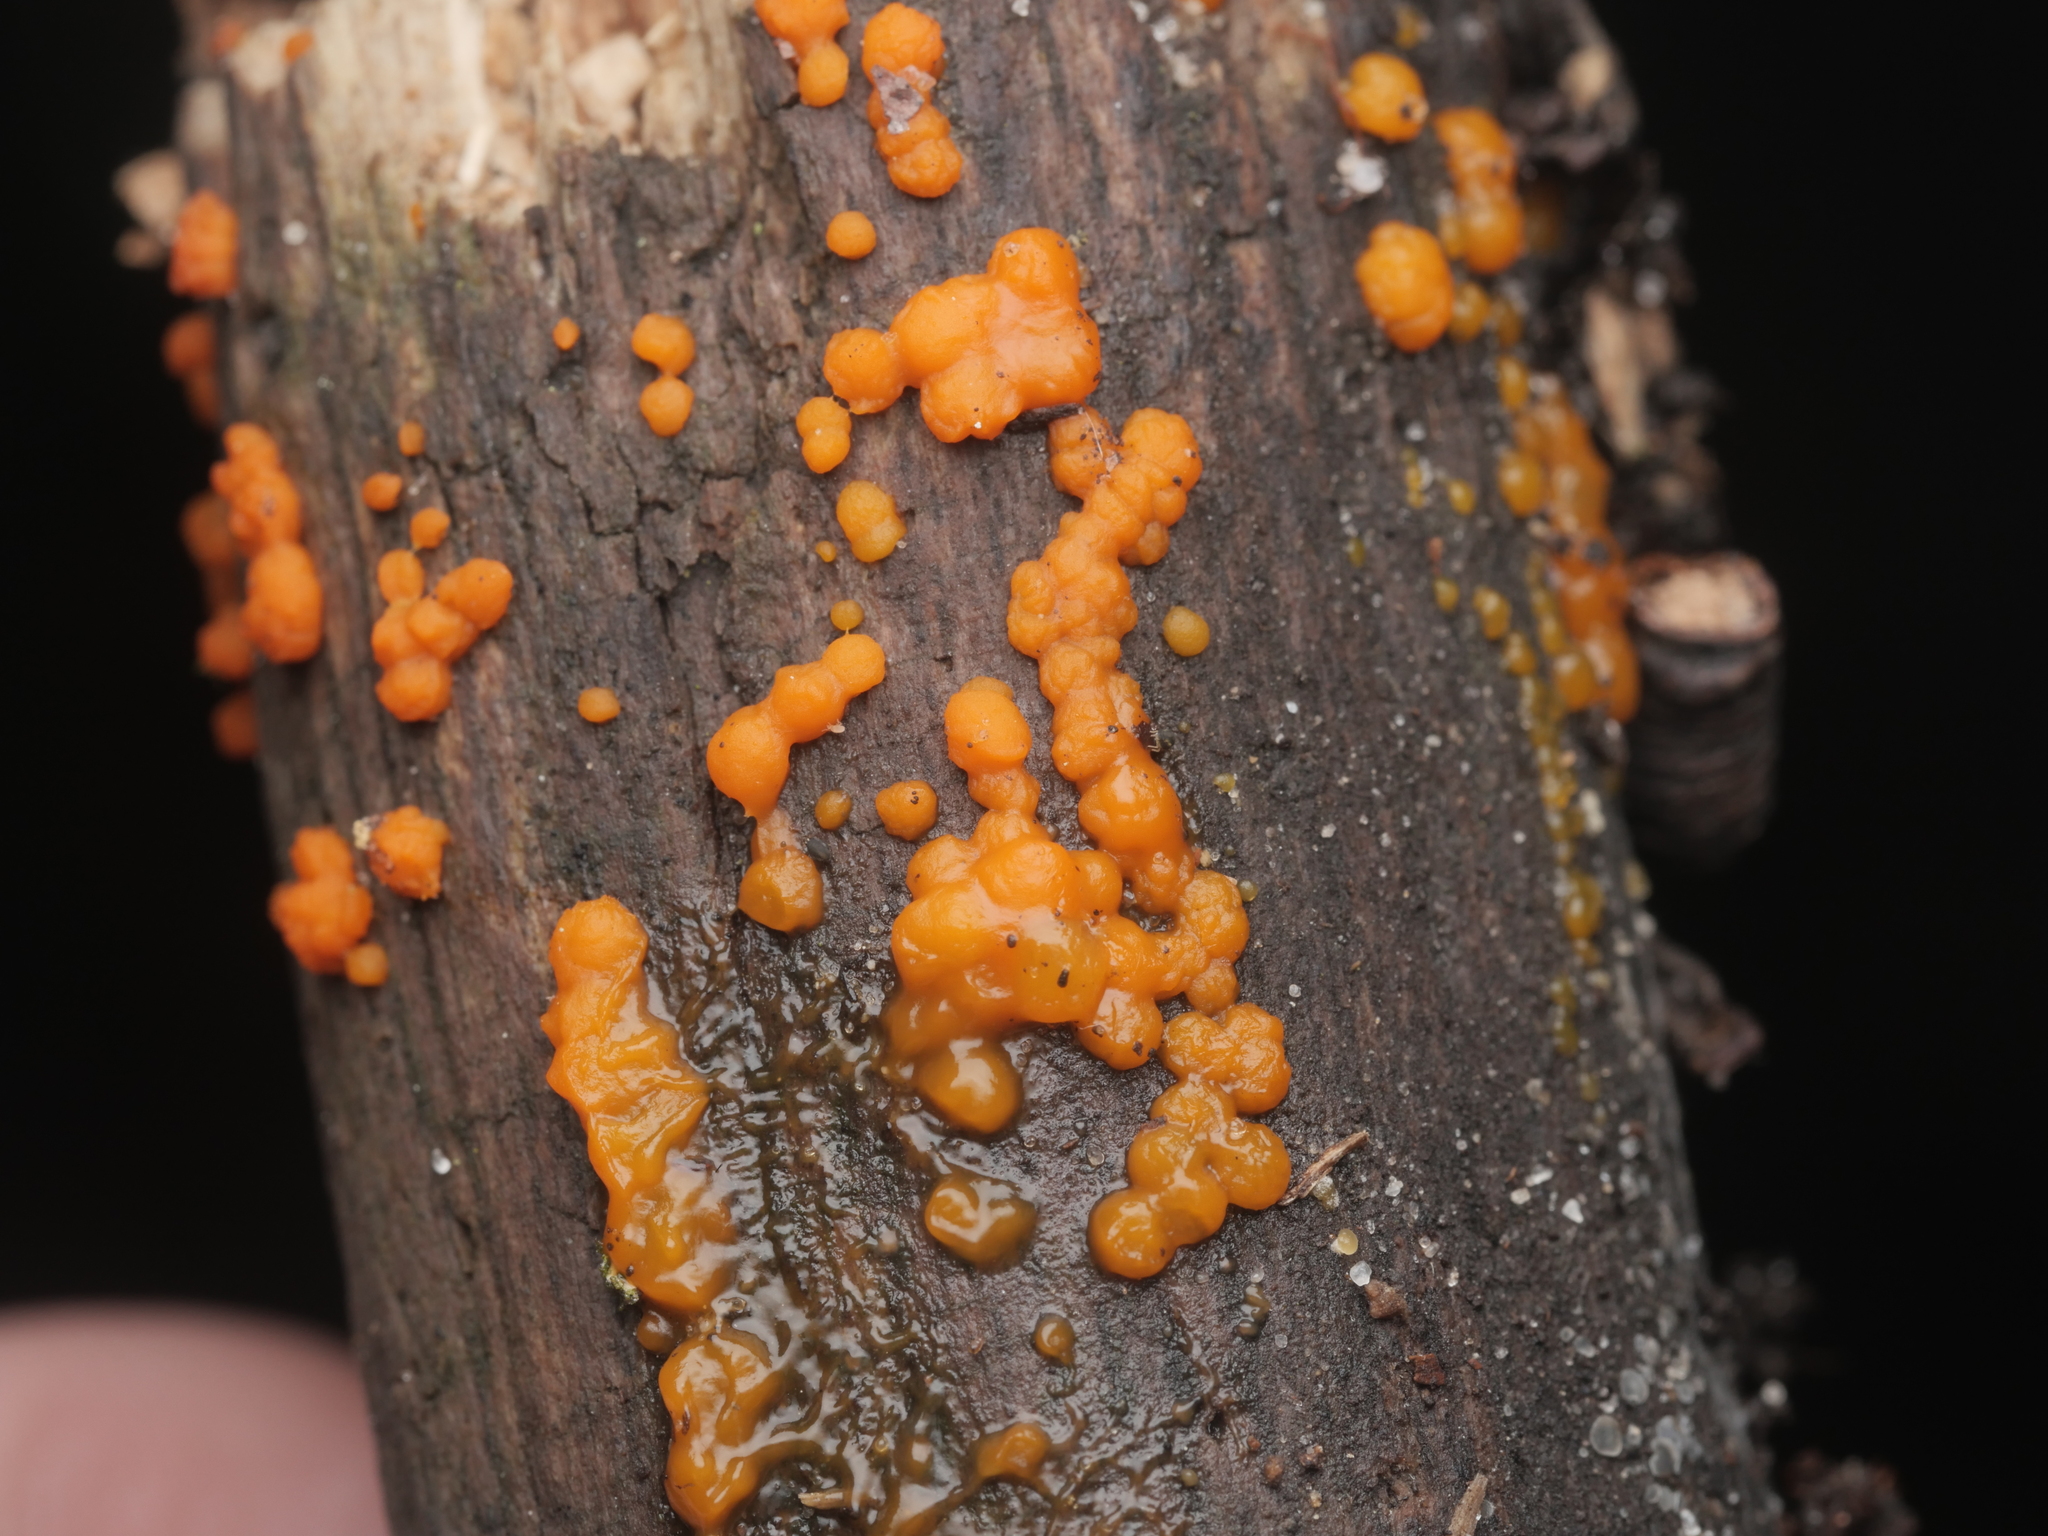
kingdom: Fungi
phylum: Basidiomycota
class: Dacrymycetes
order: Dacrymycetales
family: Dacrymycetaceae
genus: Dacrymyces
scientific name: Dacrymyces stillatus
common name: Common jelly spot
